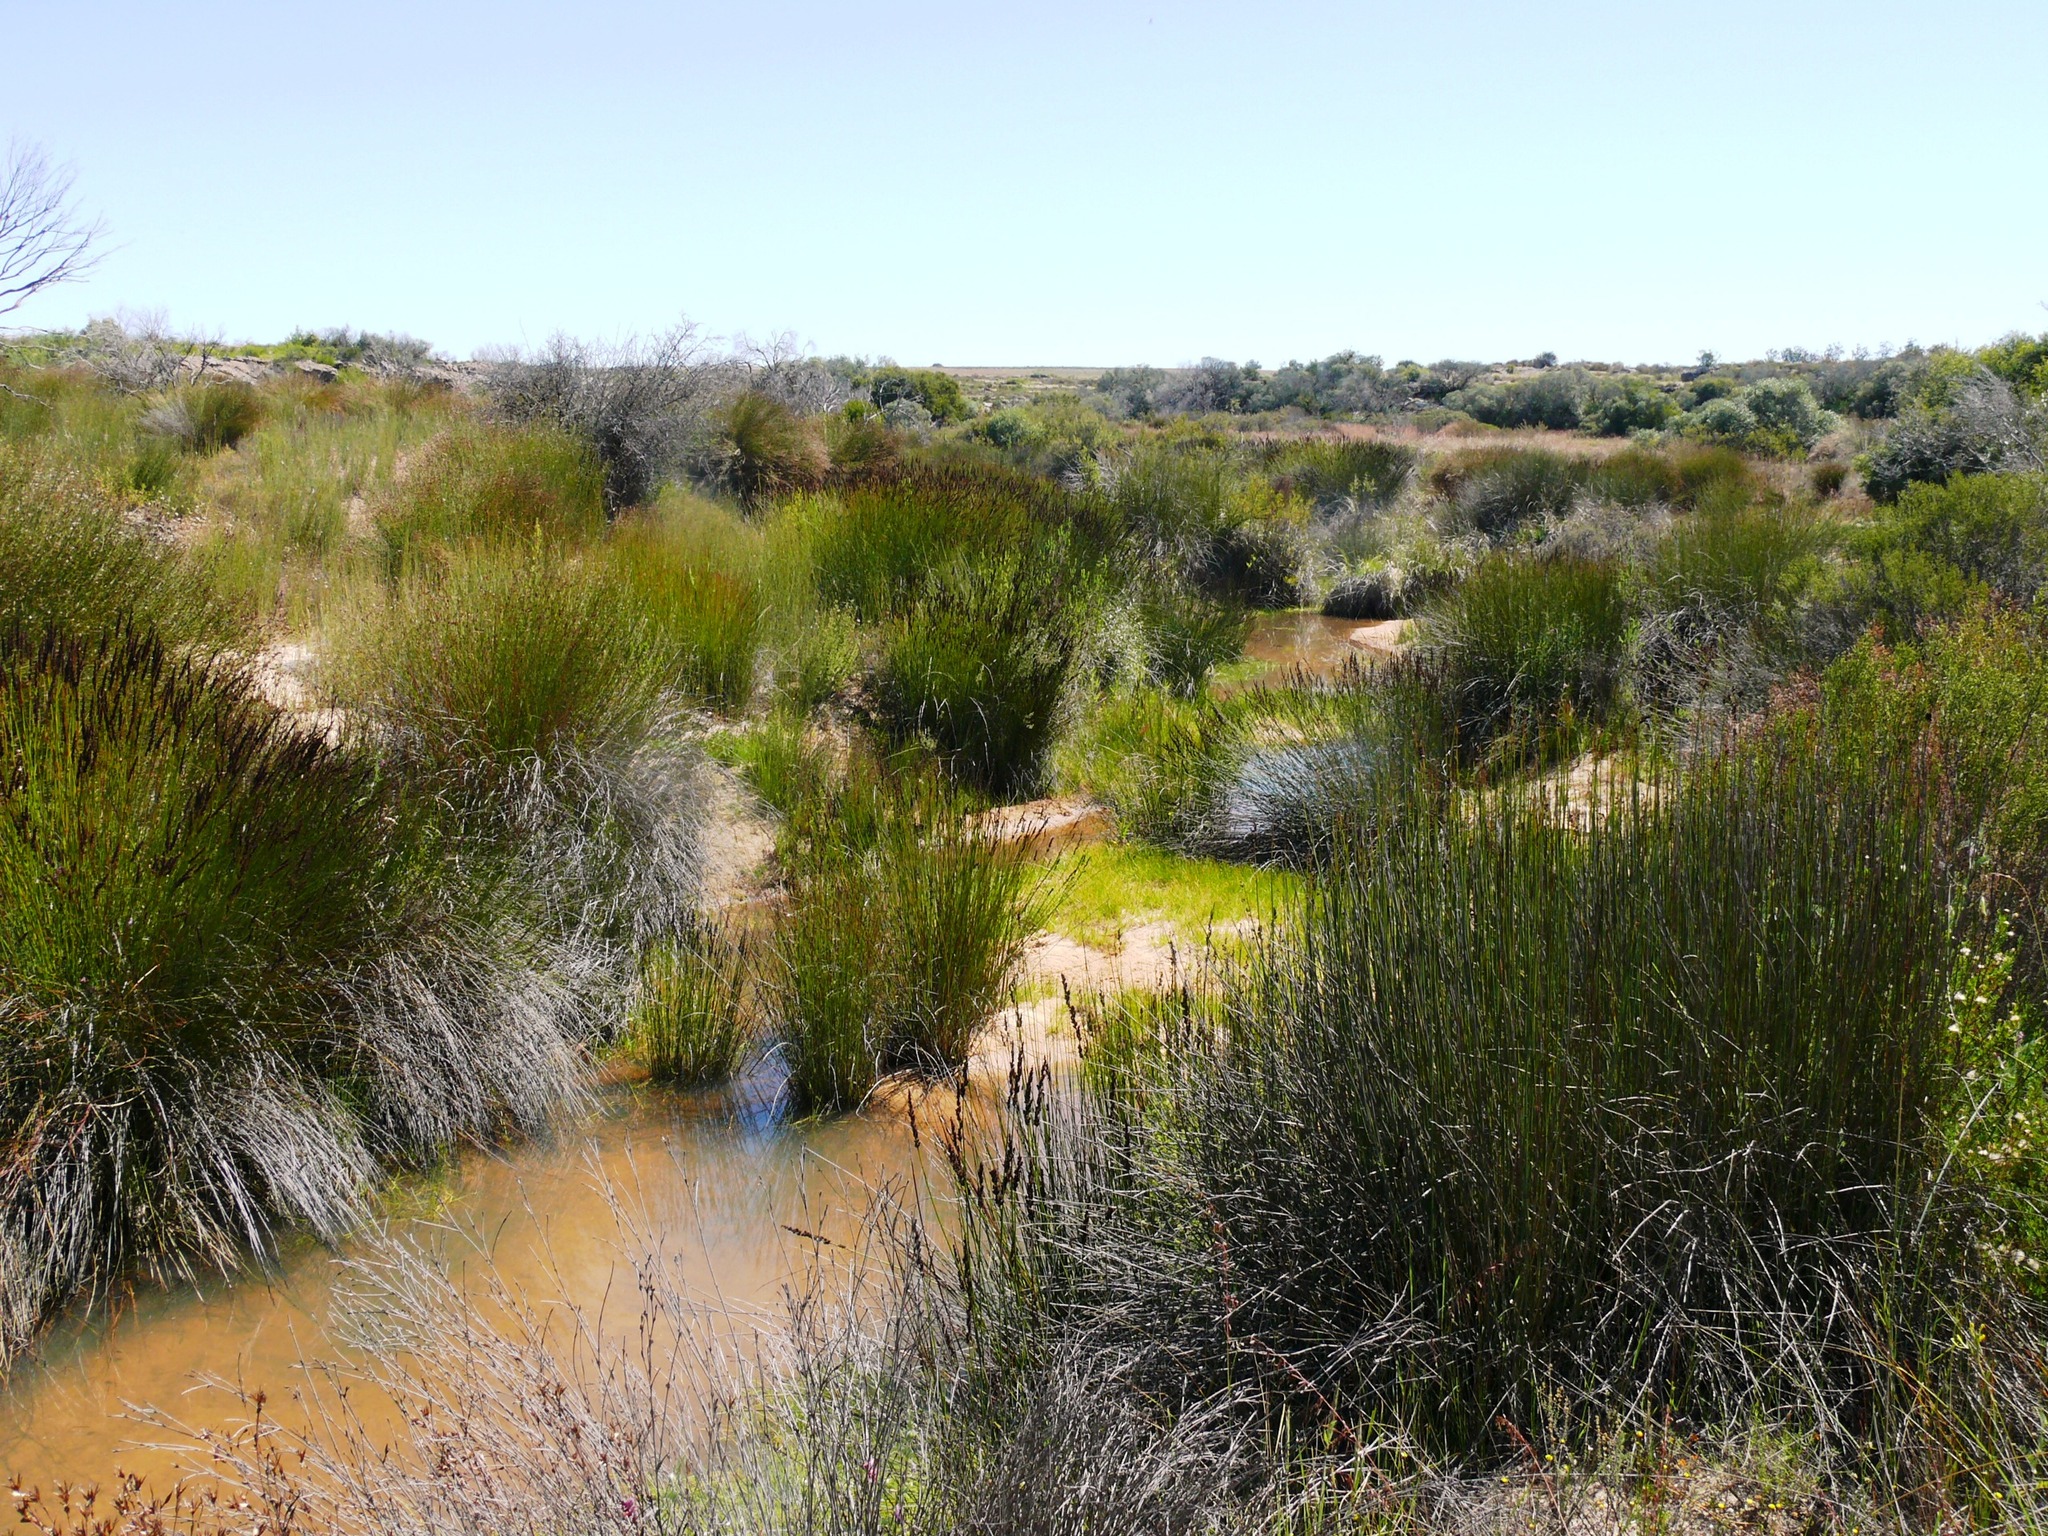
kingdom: Plantae
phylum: Tracheophyta
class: Liliopsida
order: Poales
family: Restionaceae
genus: Elegia
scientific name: Elegia tectorum
